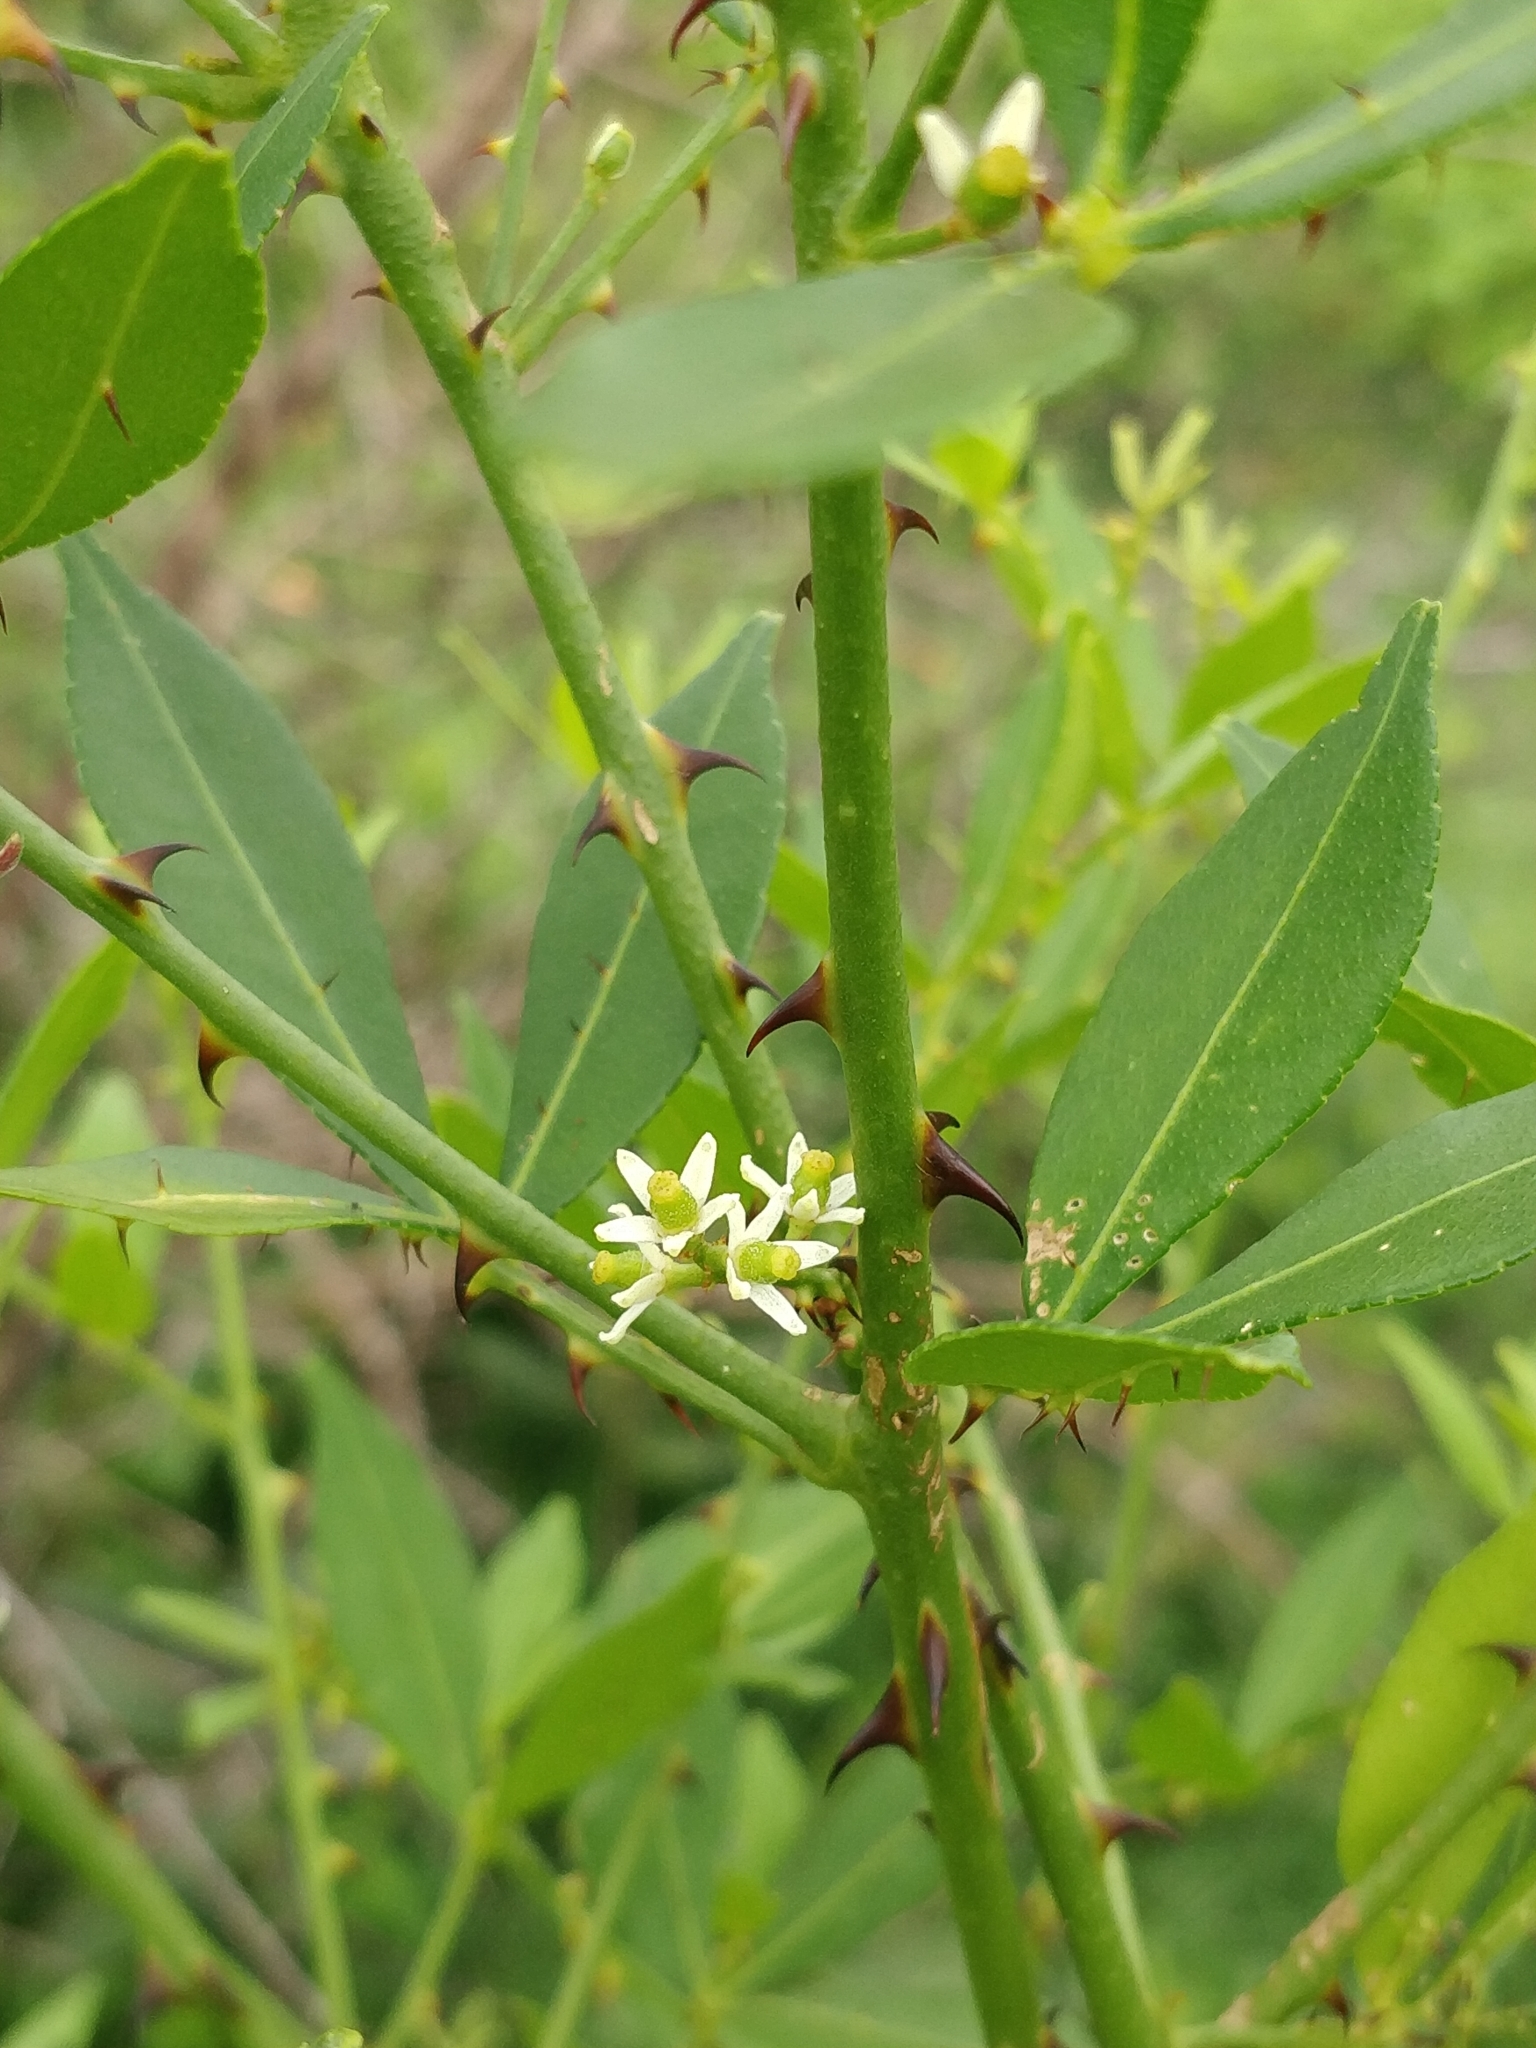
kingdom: Plantae
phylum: Tracheophyta
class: Magnoliopsida
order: Sapindales
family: Rutaceae
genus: Zanthoxylum
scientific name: Zanthoxylum asiaticum
